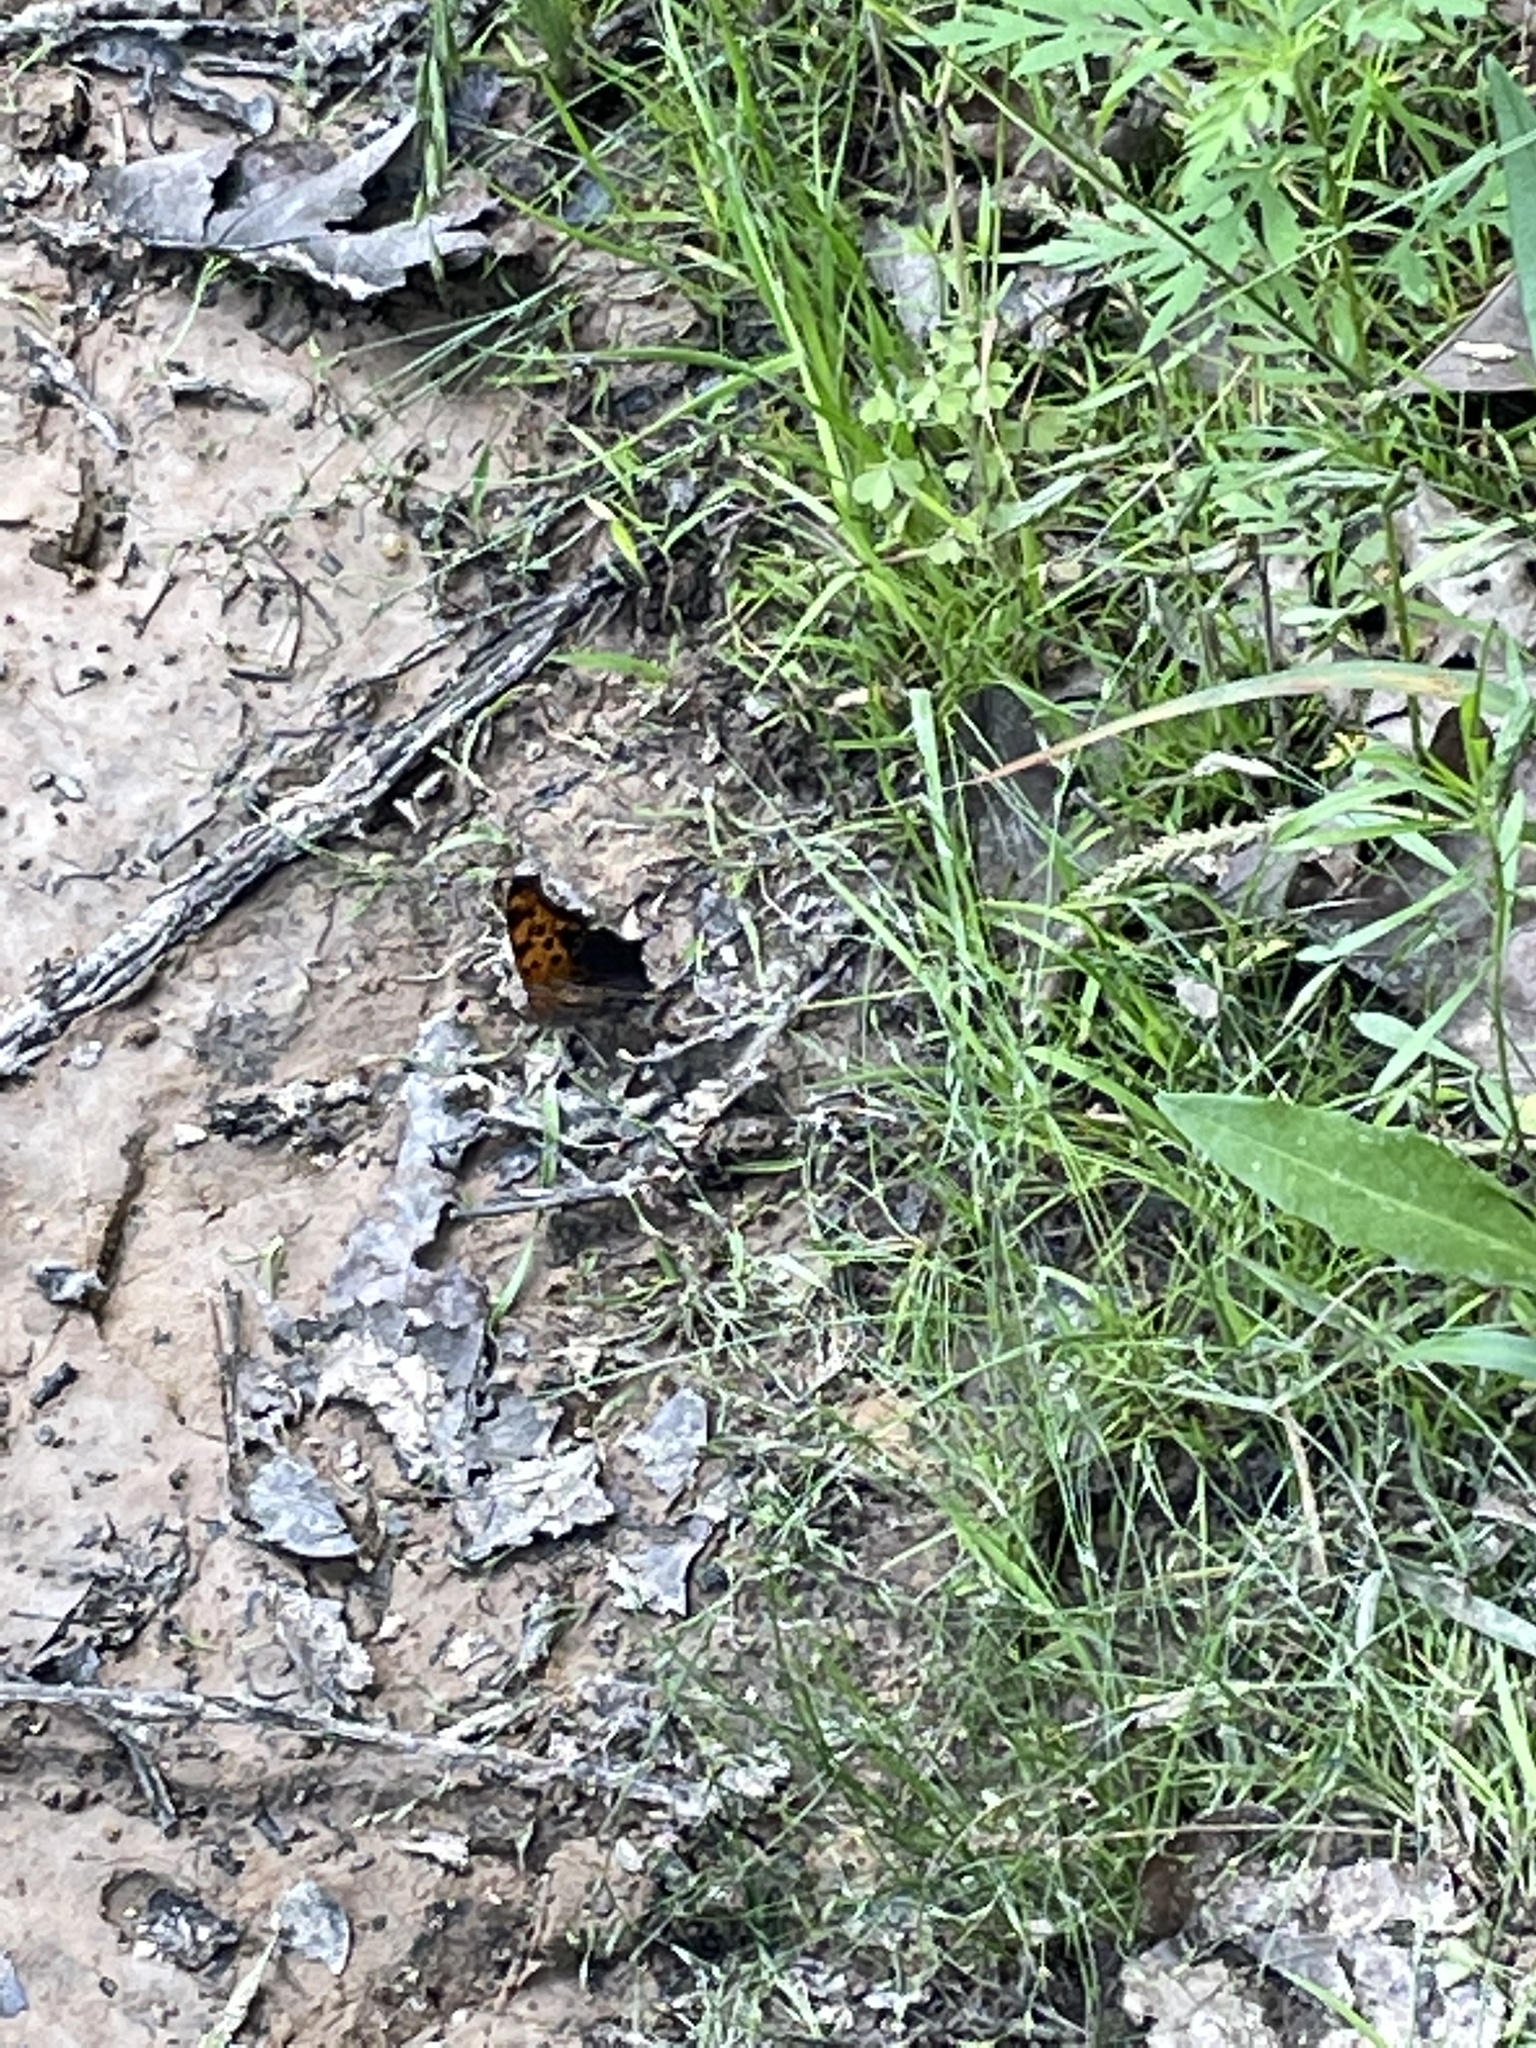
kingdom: Animalia
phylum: Arthropoda
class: Insecta
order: Lepidoptera
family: Nymphalidae
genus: Polygonia
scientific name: Polygonia interrogationis
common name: Question mark
